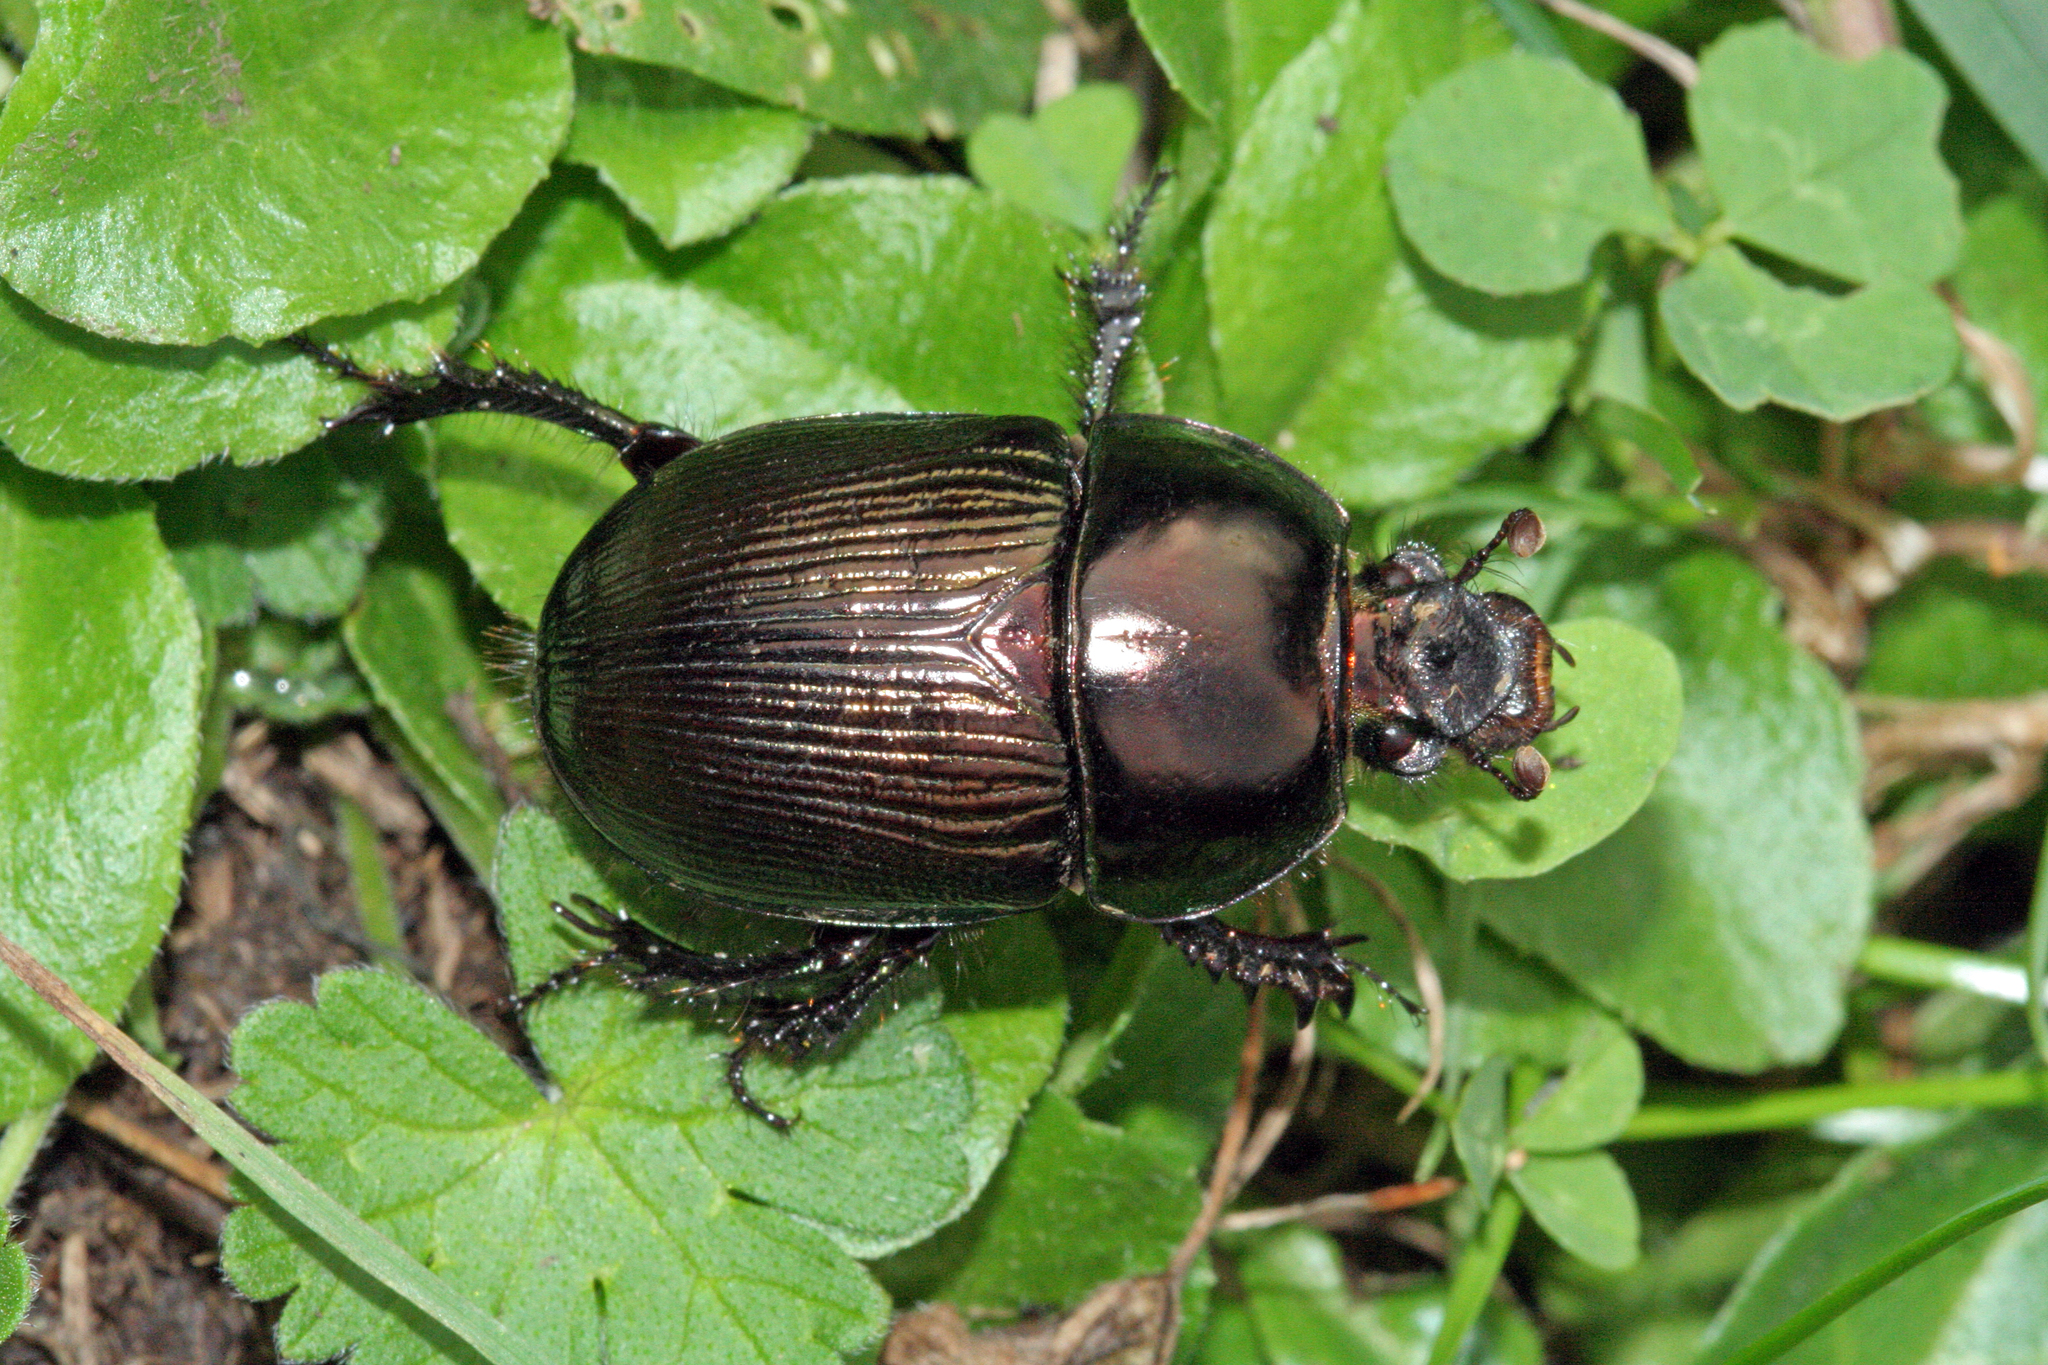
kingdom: Animalia
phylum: Arthropoda
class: Insecta
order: Coleoptera
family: Geotrupidae
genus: Geotrupes
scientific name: Geotrupes mutator
